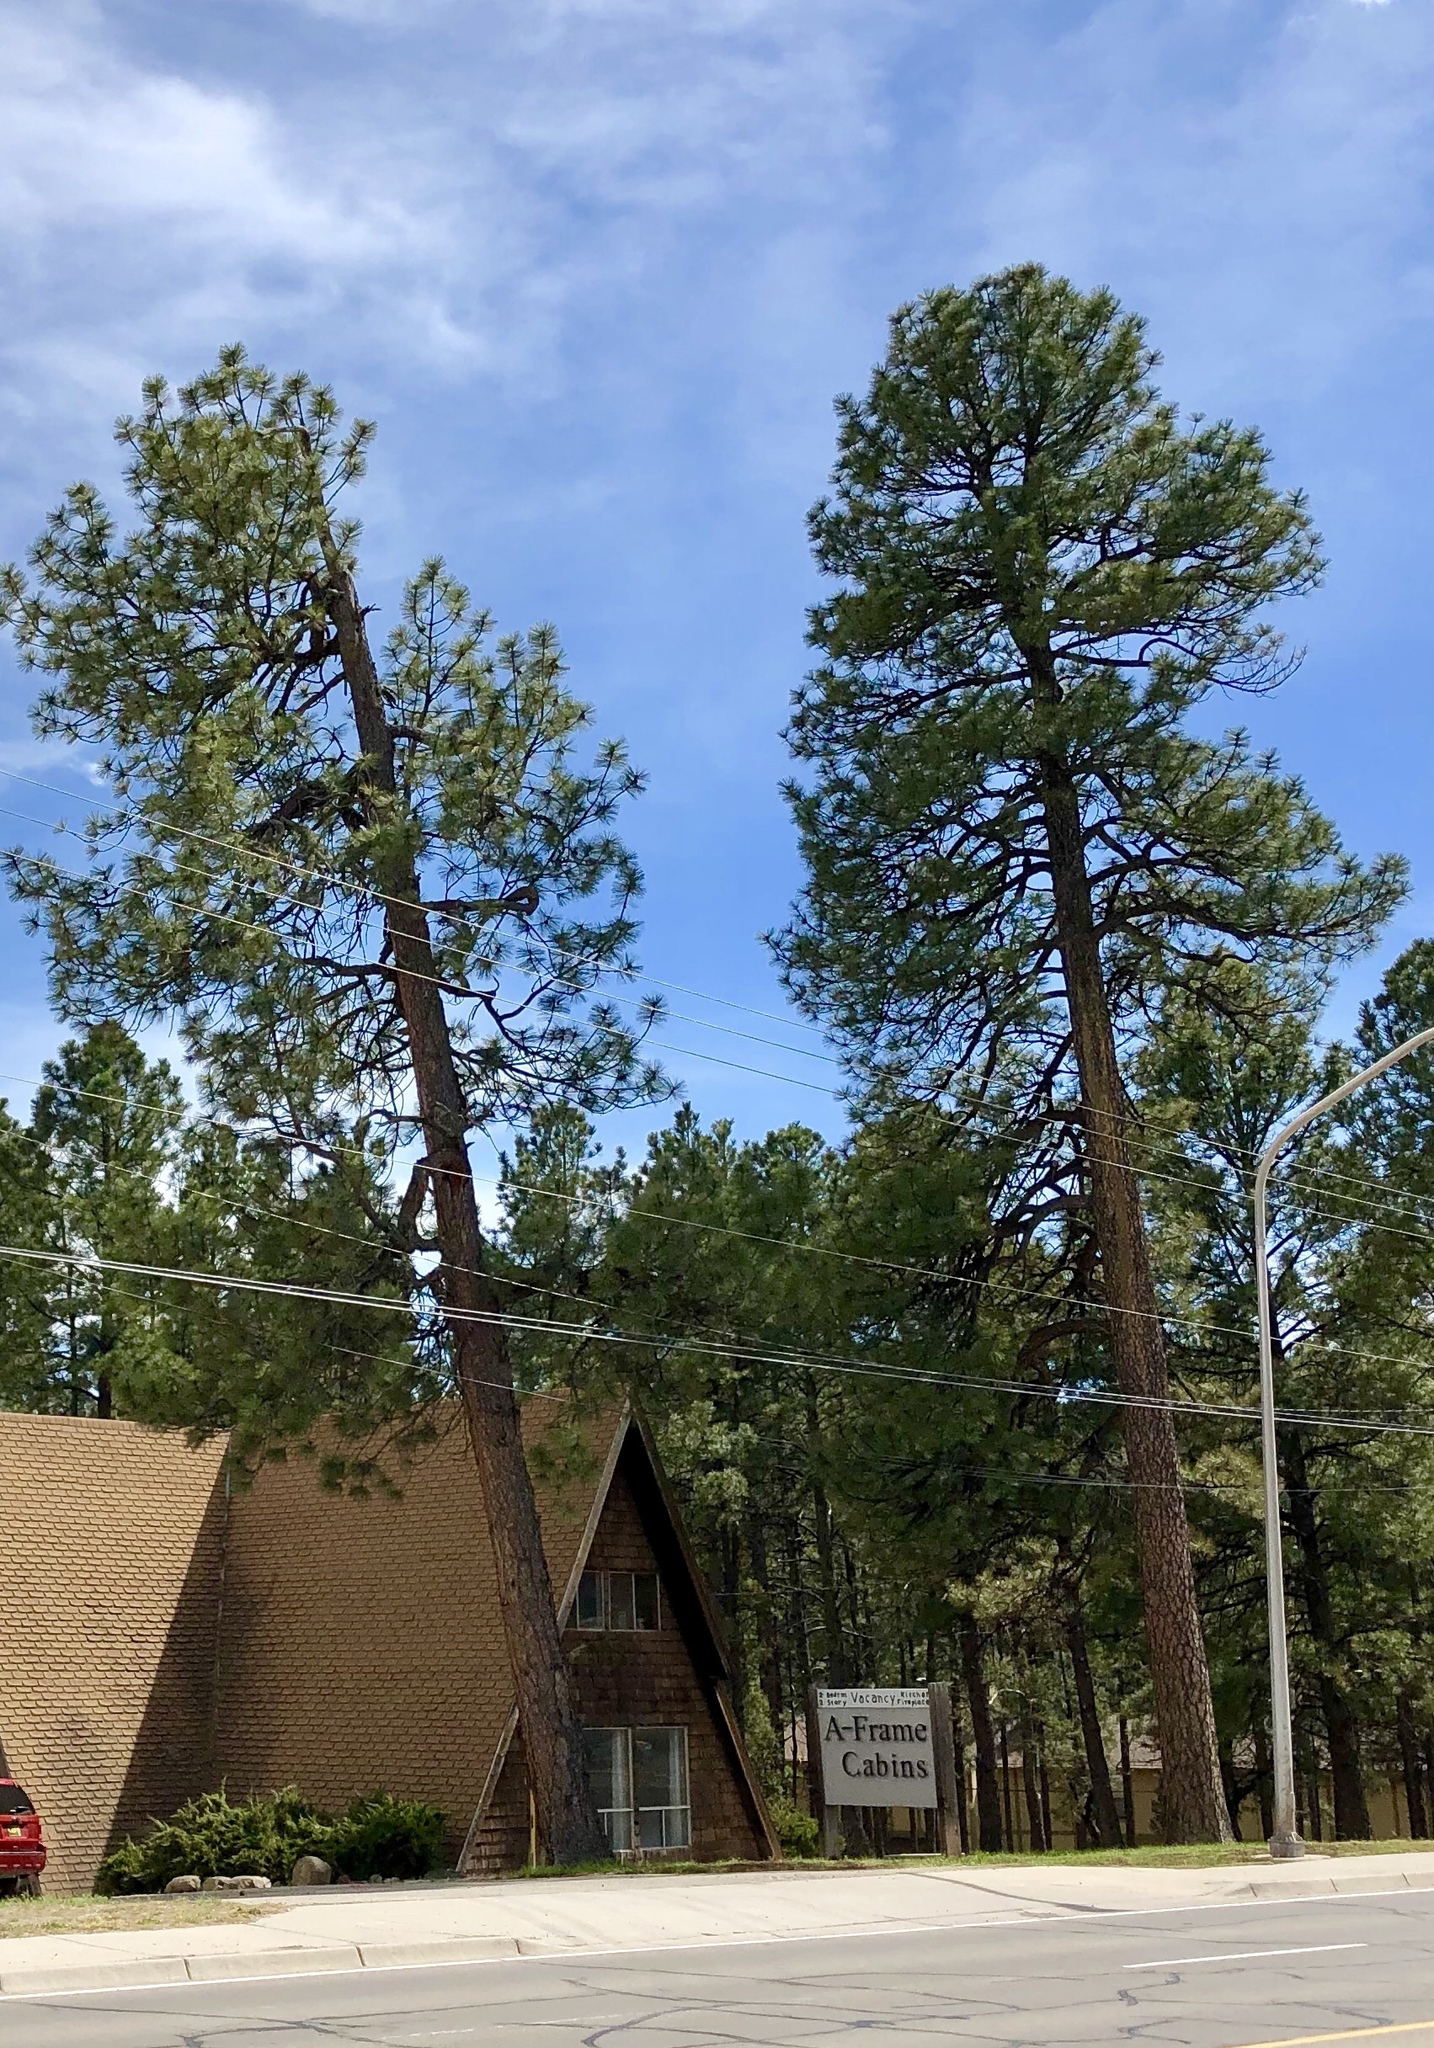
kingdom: Plantae
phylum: Tracheophyta
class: Pinopsida
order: Pinales
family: Pinaceae
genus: Pinus
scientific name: Pinus ponderosa
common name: Western yellow-pine
